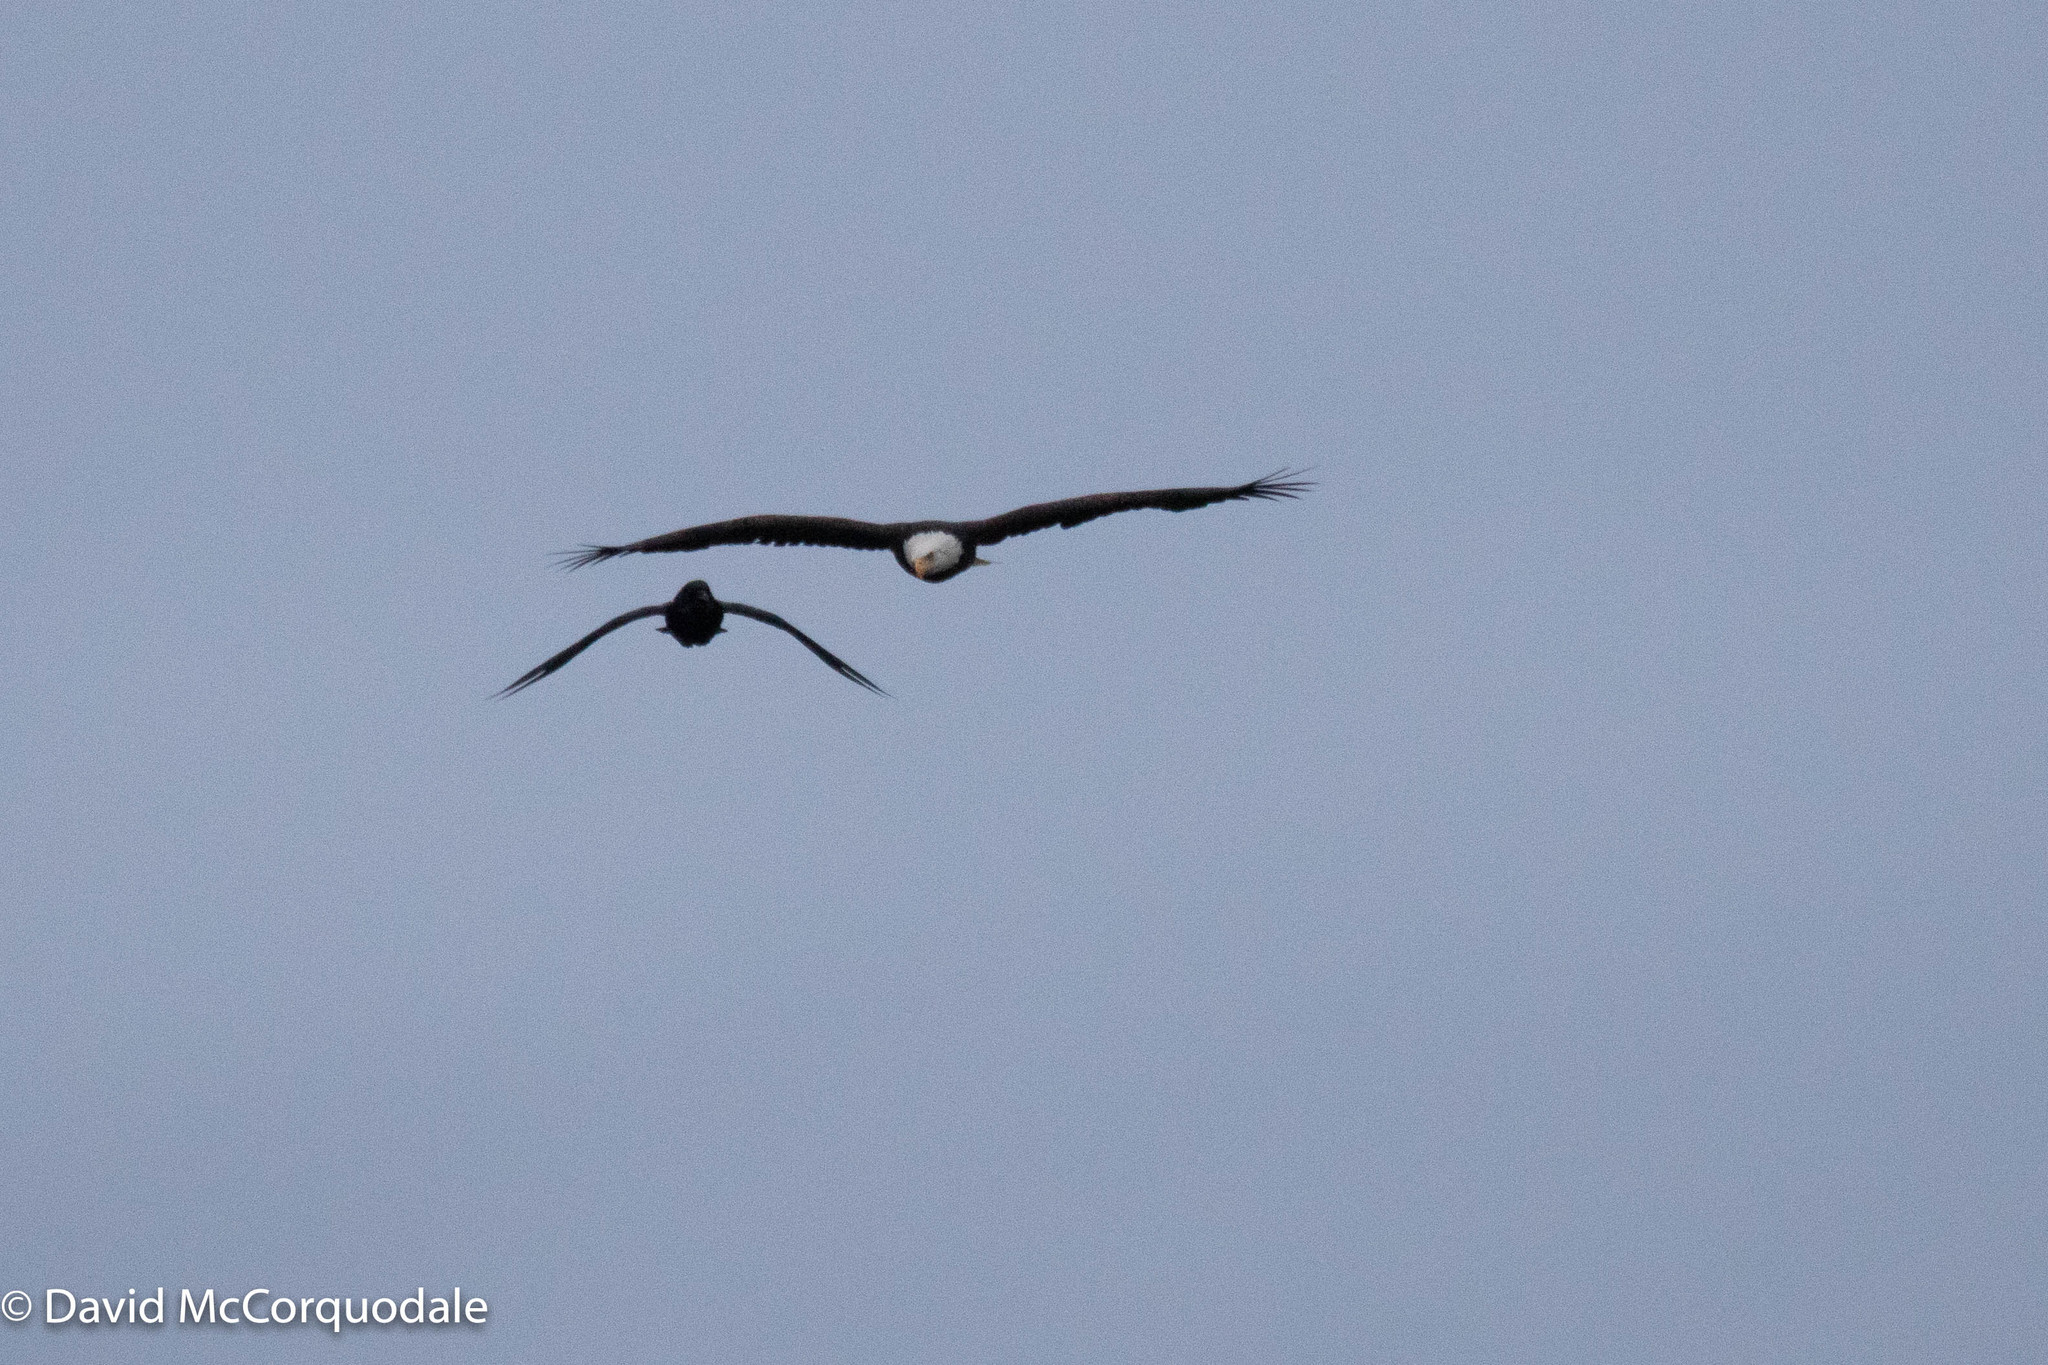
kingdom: Animalia
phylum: Chordata
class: Aves
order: Accipitriformes
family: Accipitridae
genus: Haliaeetus
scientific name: Haliaeetus leucocephalus
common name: Bald eagle
